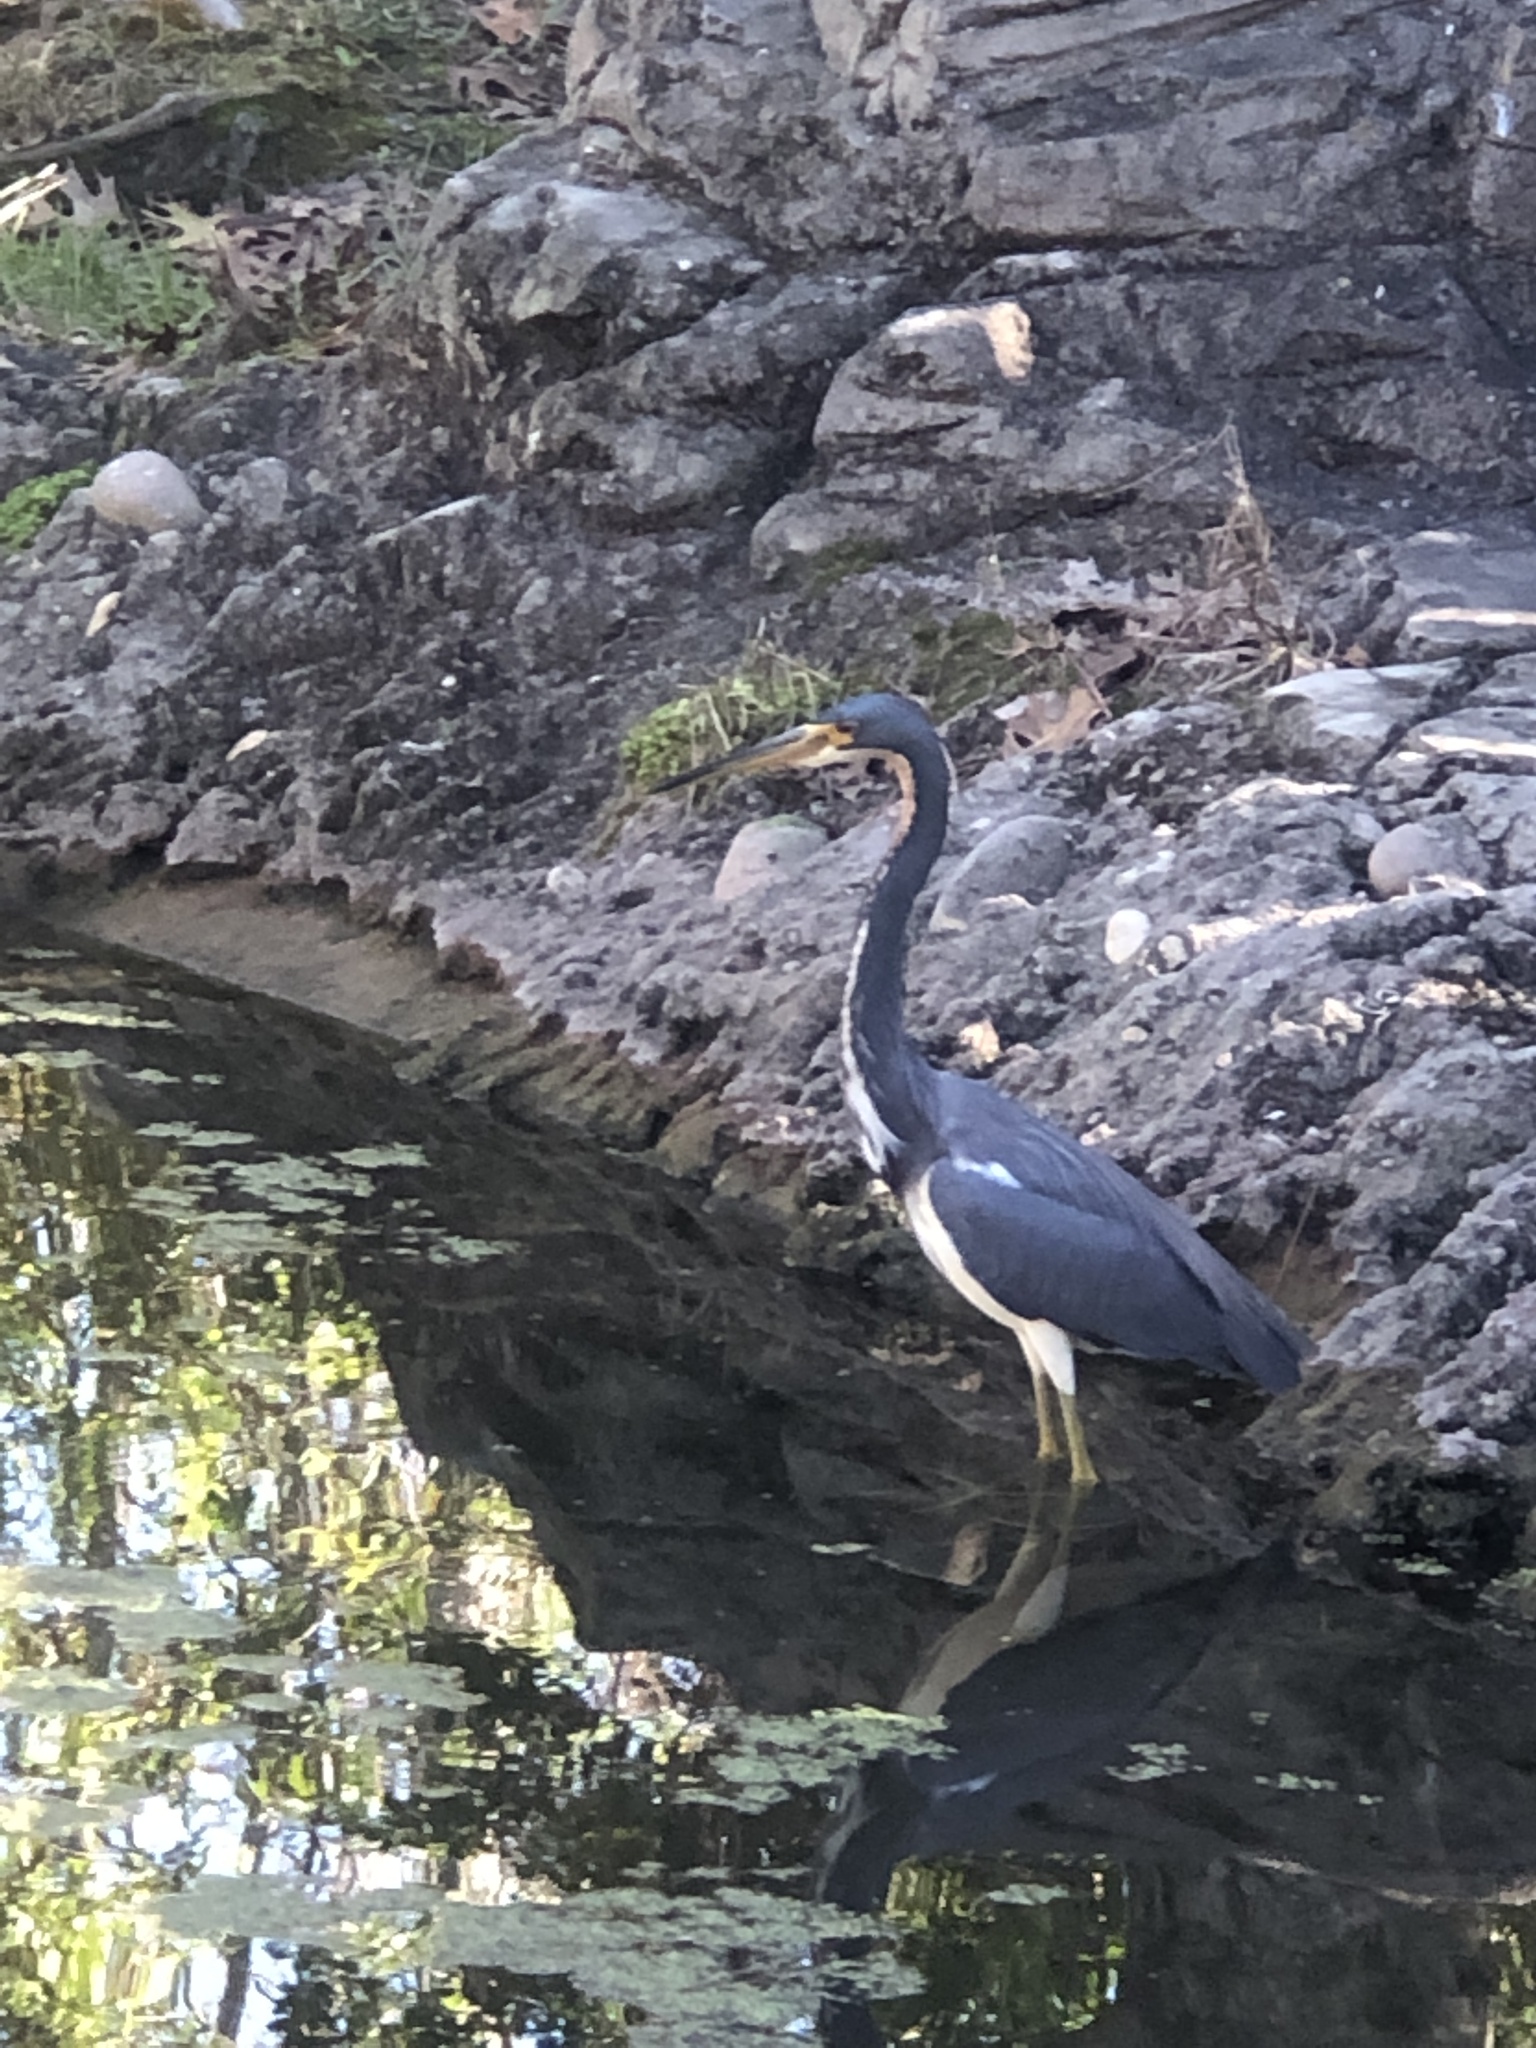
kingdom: Animalia
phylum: Chordata
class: Aves
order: Pelecaniformes
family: Ardeidae
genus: Egretta
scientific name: Egretta tricolor
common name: Tricolored heron
